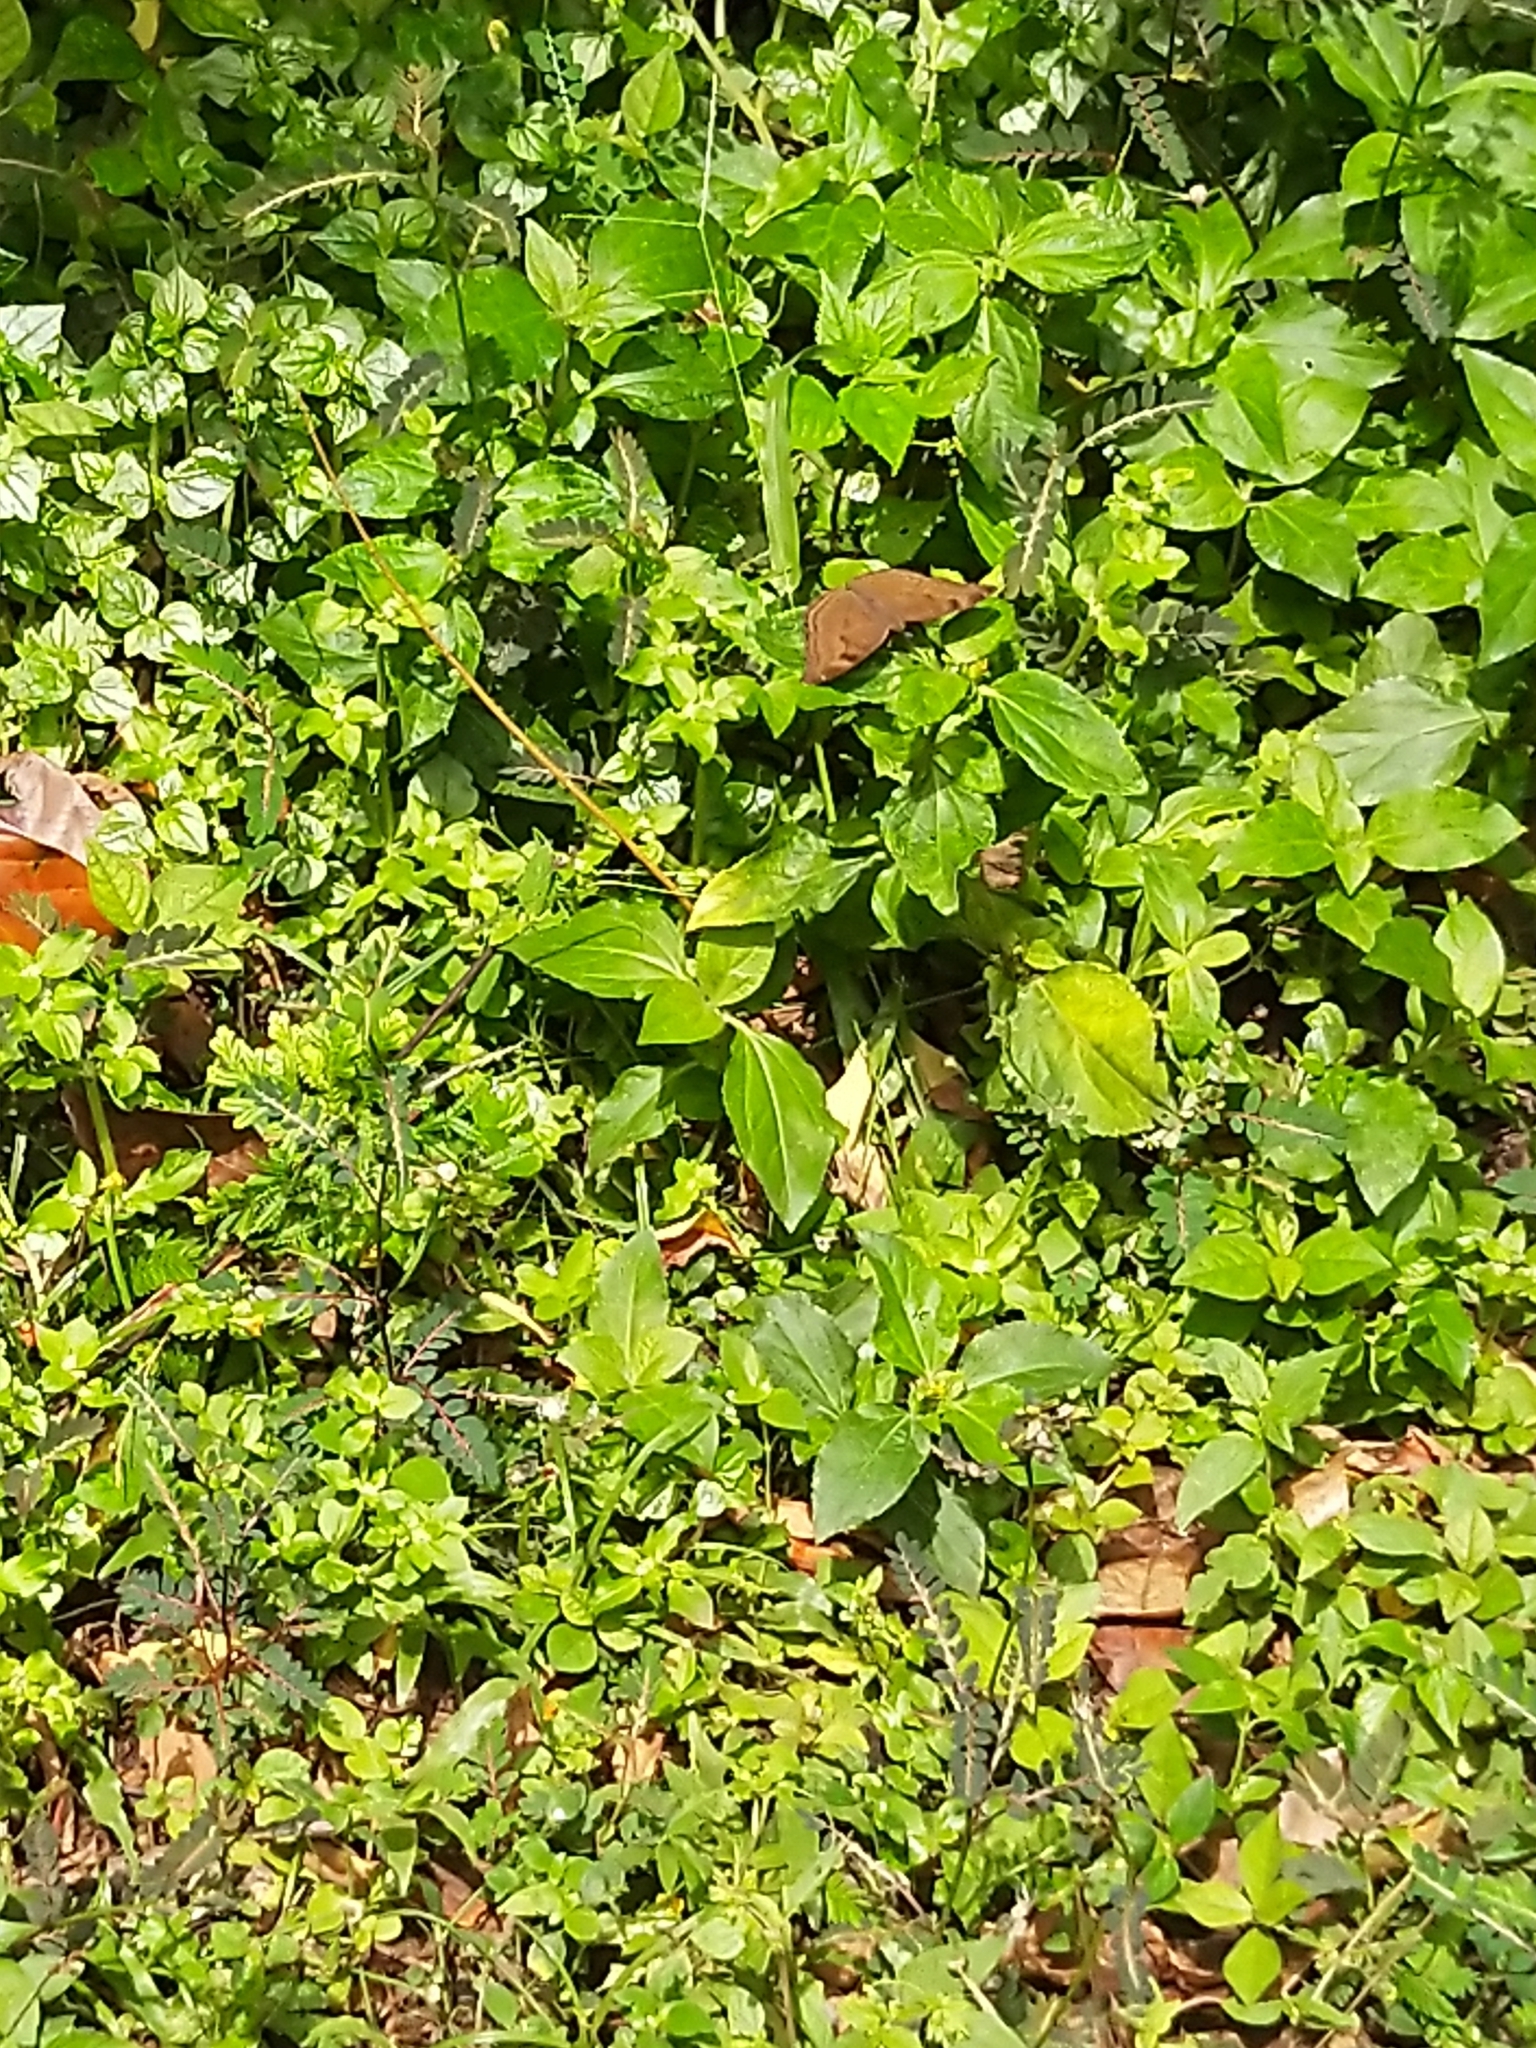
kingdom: Animalia
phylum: Arthropoda
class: Insecta
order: Lepidoptera
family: Nymphalidae
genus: Junonia
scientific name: Junonia iphita
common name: Chocolate pansy
